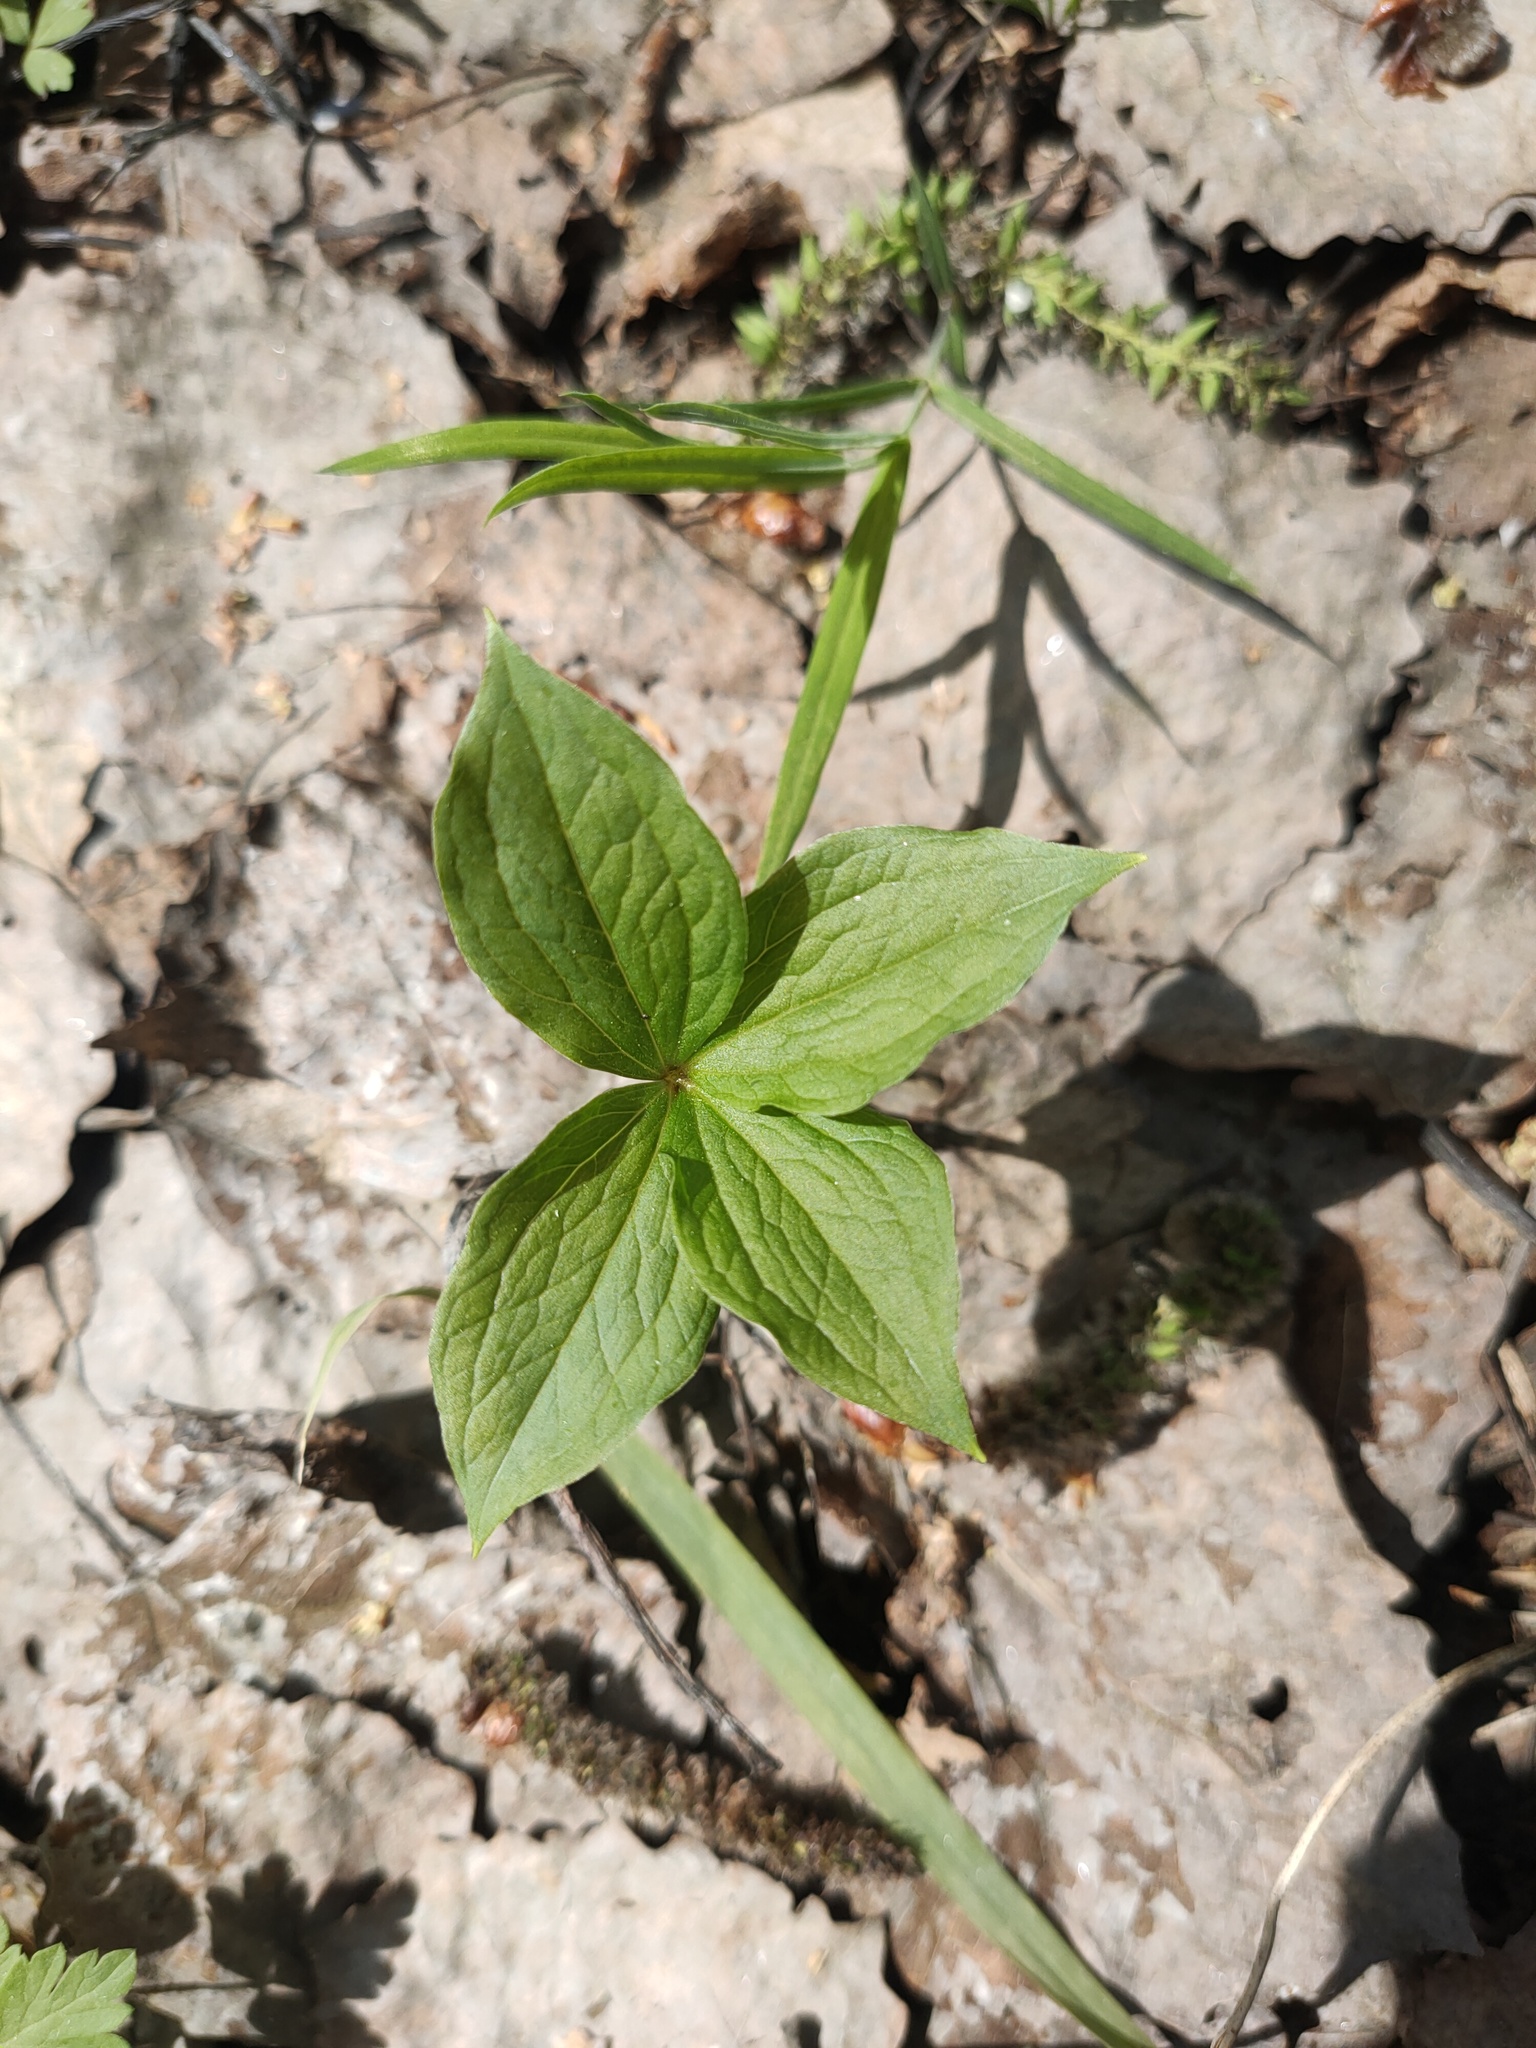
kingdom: Plantae
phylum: Tracheophyta
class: Liliopsida
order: Liliales
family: Melanthiaceae
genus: Paris
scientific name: Paris quadrifolia
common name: Herb-paris
